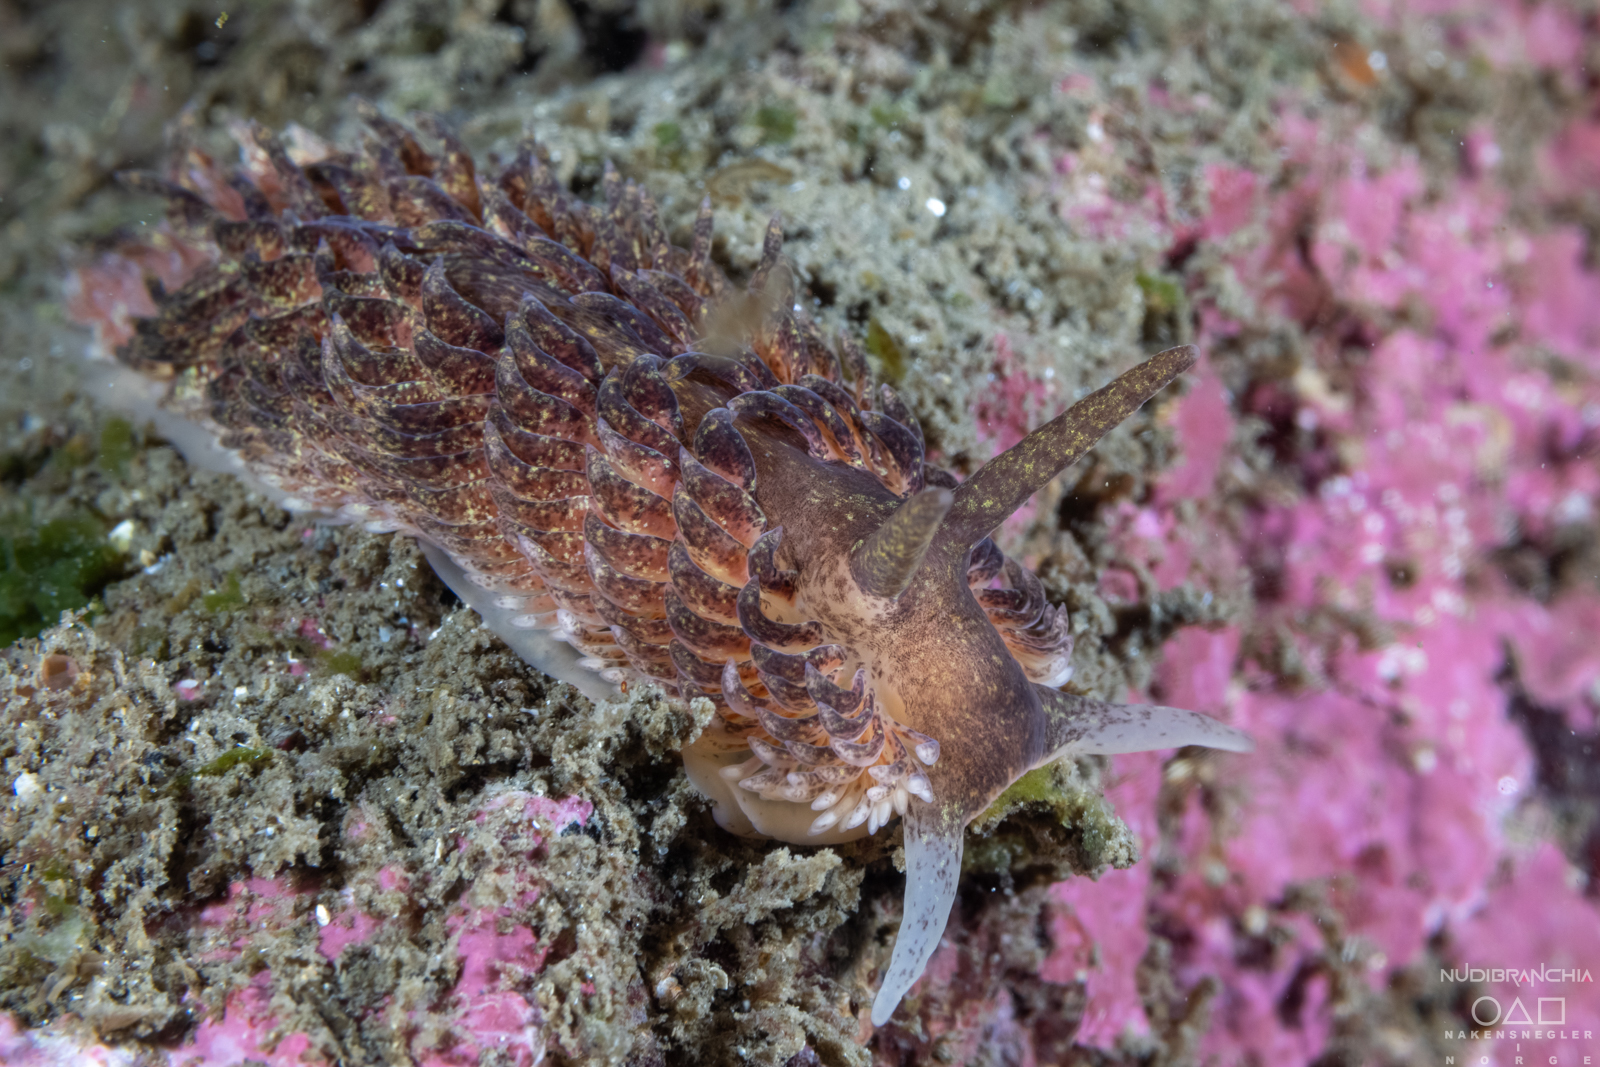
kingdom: Animalia
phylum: Mollusca
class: Gastropoda
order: Nudibranchia
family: Aeolidiidae
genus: Aeolidia
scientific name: Aeolidia papillosa
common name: Common grey sea slug
